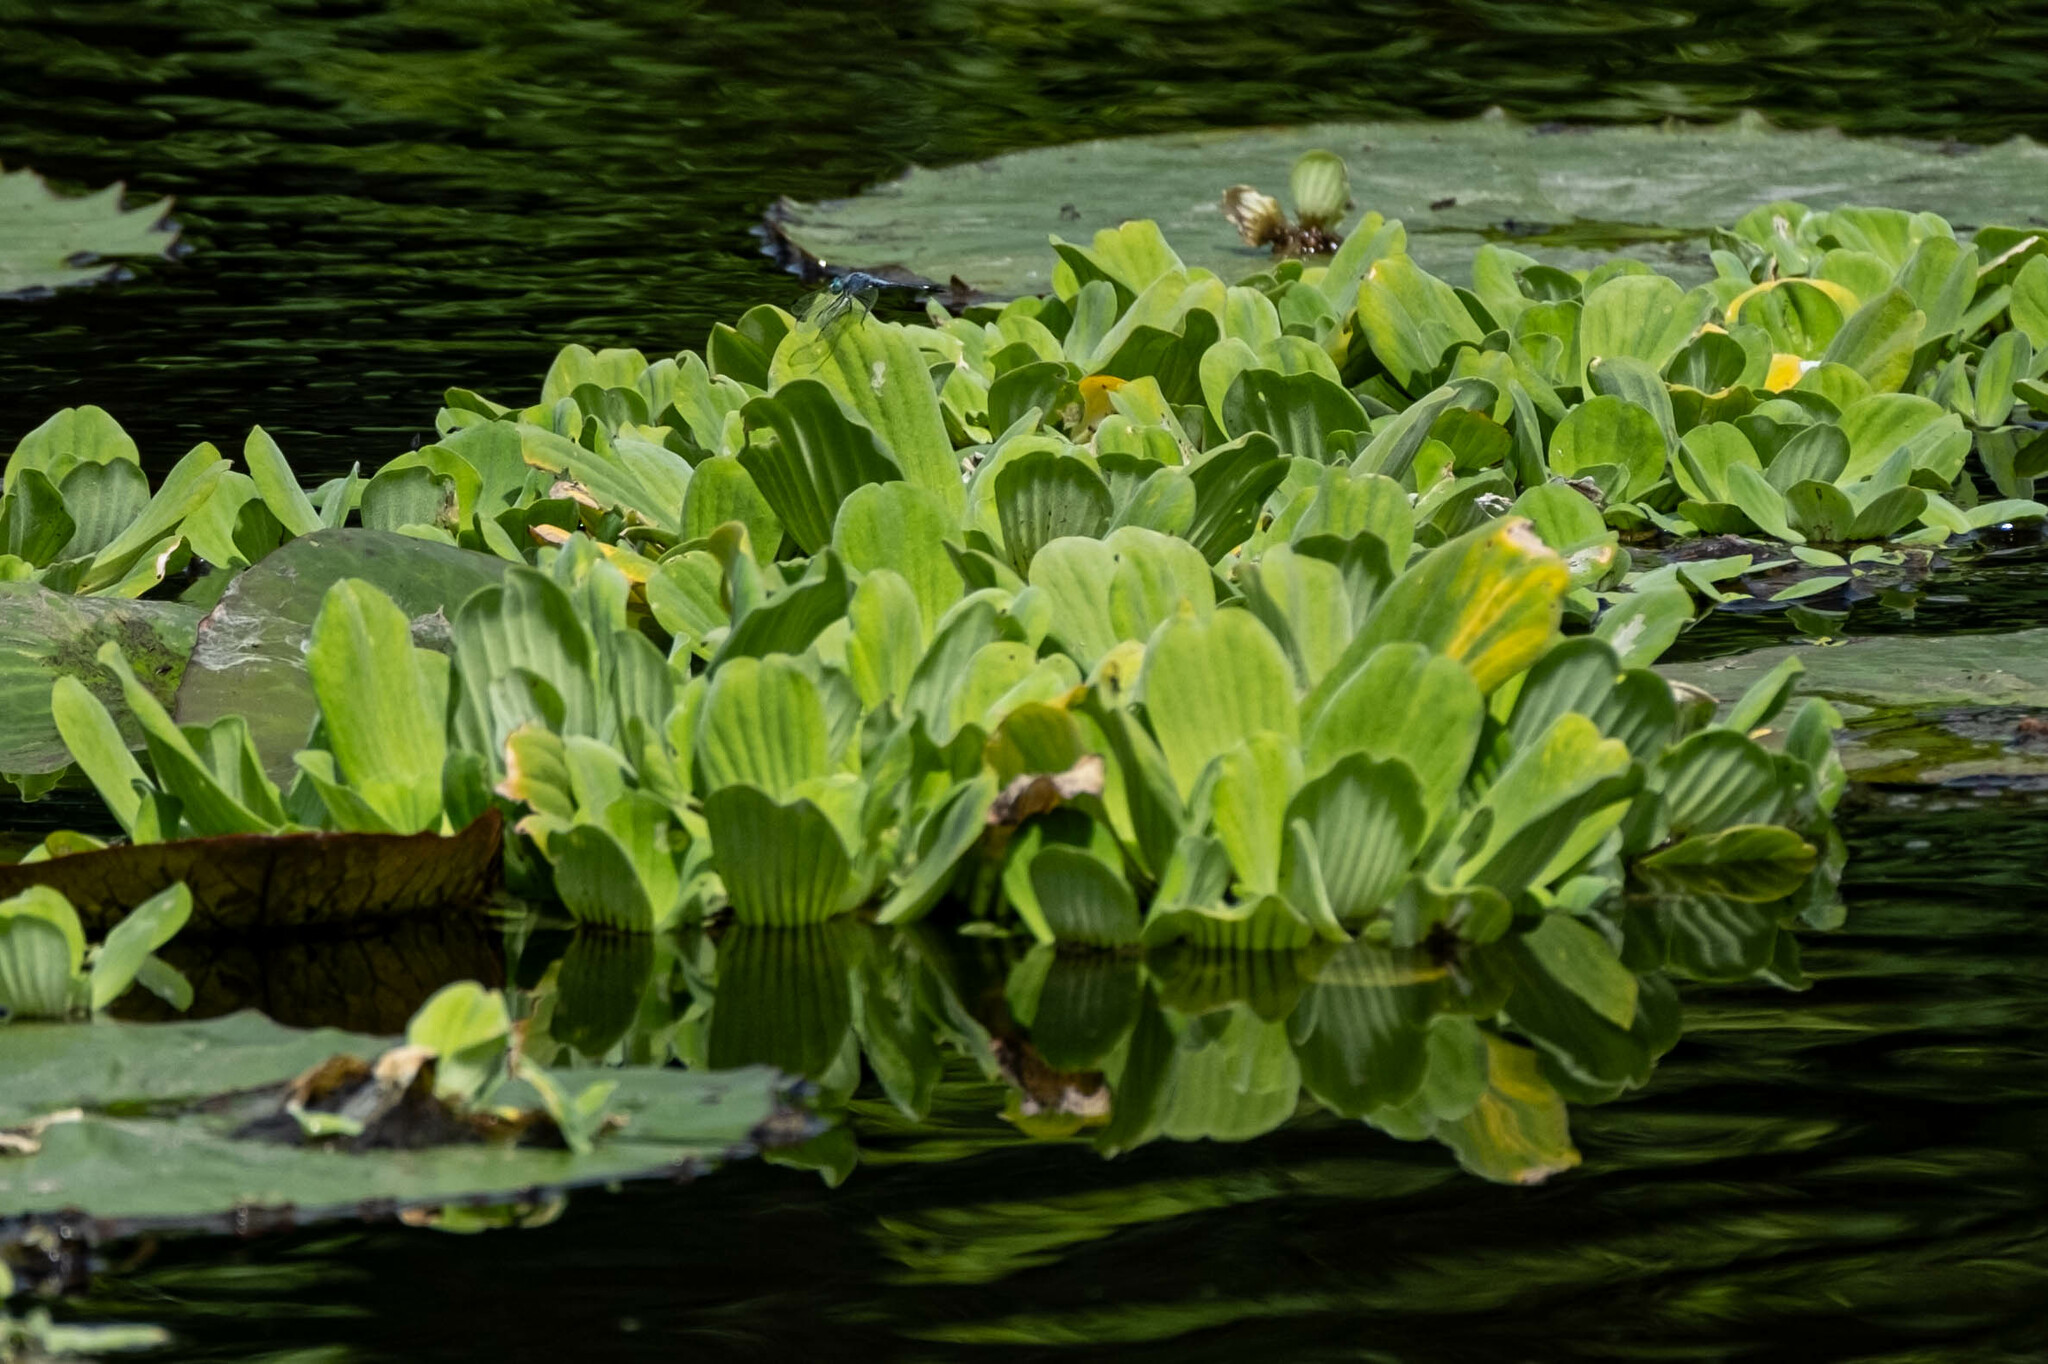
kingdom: Plantae
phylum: Tracheophyta
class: Liliopsida
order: Alismatales
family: Araceae
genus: Pistia
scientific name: Pistia stratiotes
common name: Water lettuce
